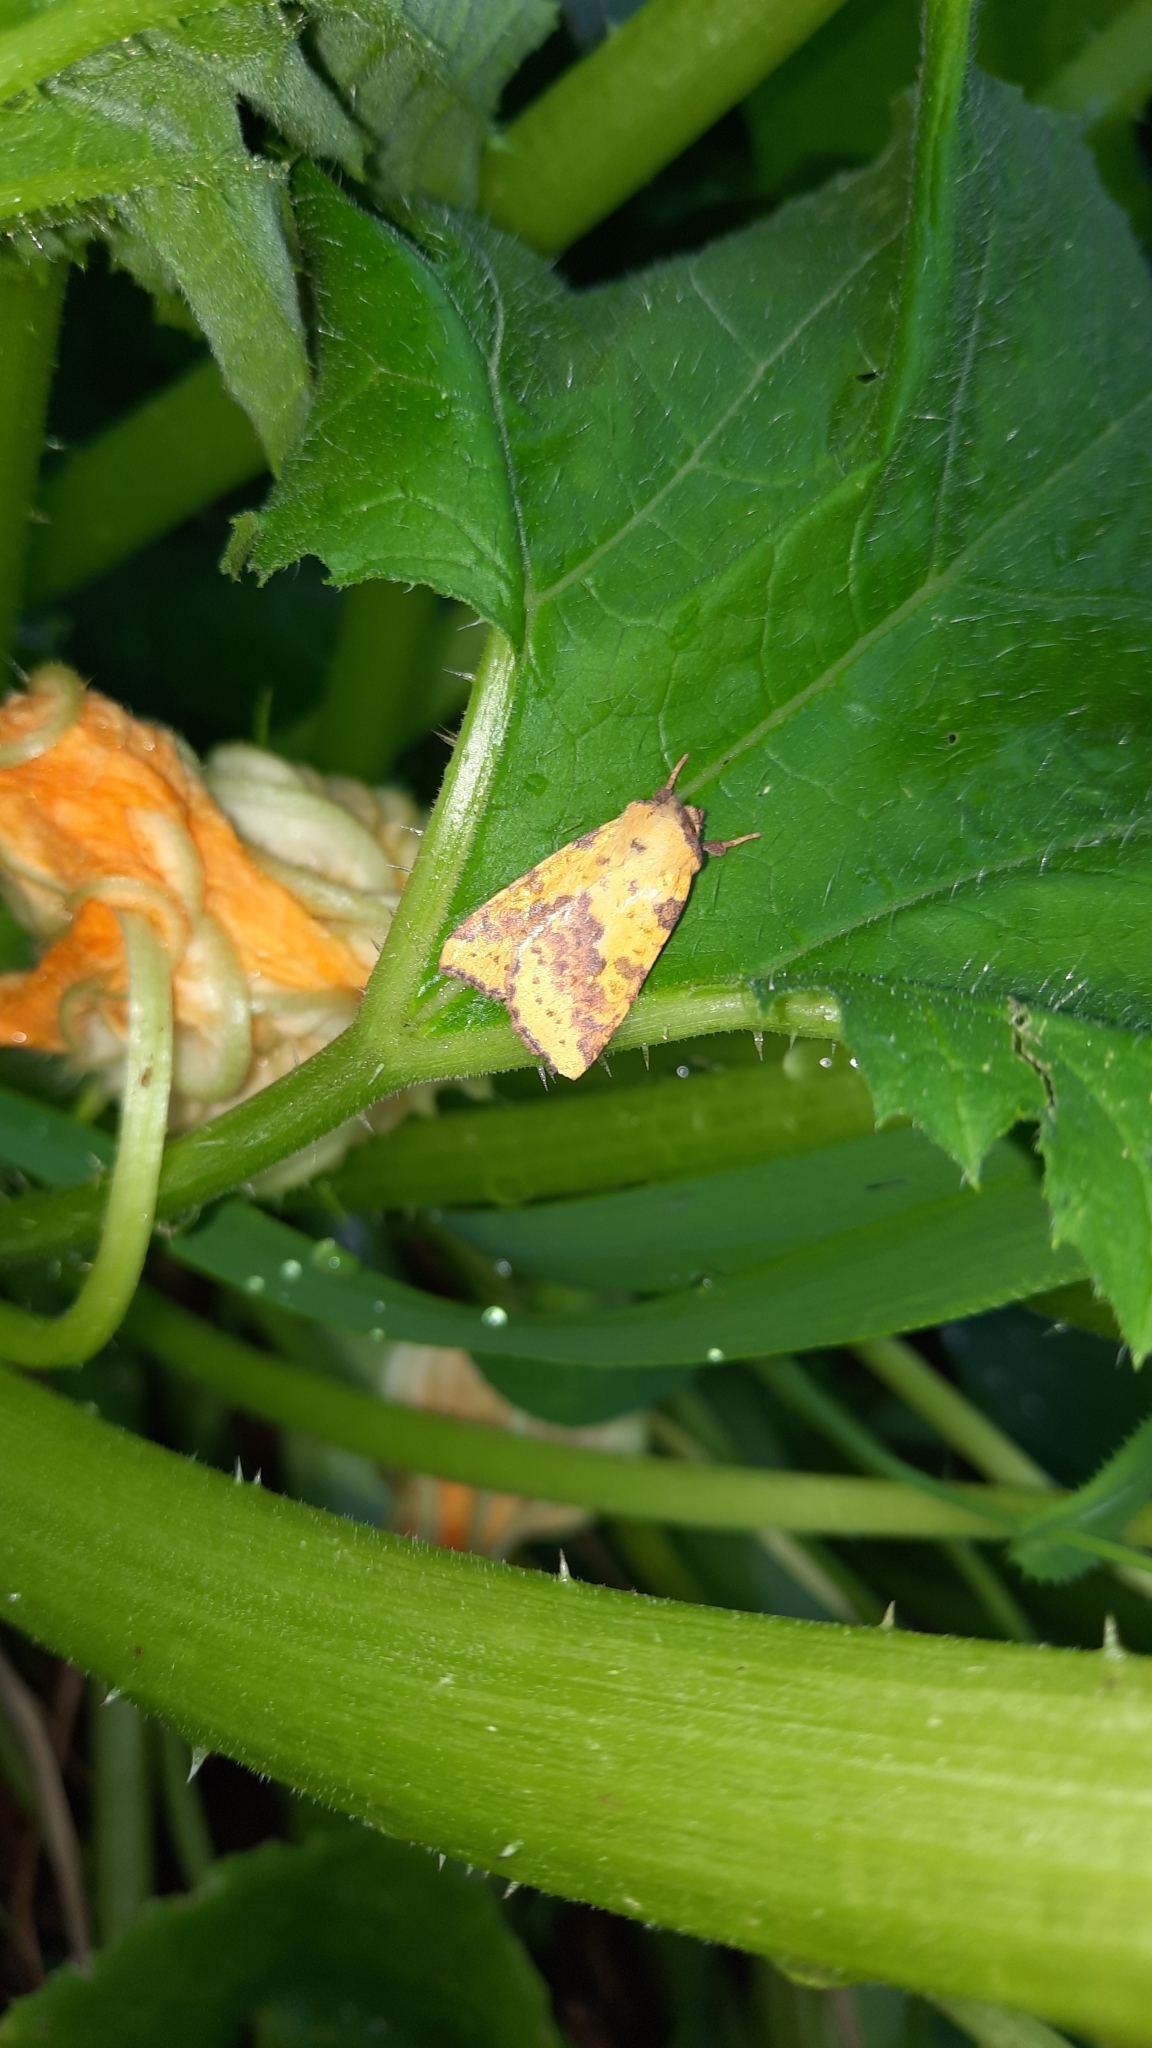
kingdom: Animalia
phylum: Arthropoda
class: Insecta
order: Lepidoptera
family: Noctuidae
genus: Xanthia
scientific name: Xanthia togata
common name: Pink-barred sallow
